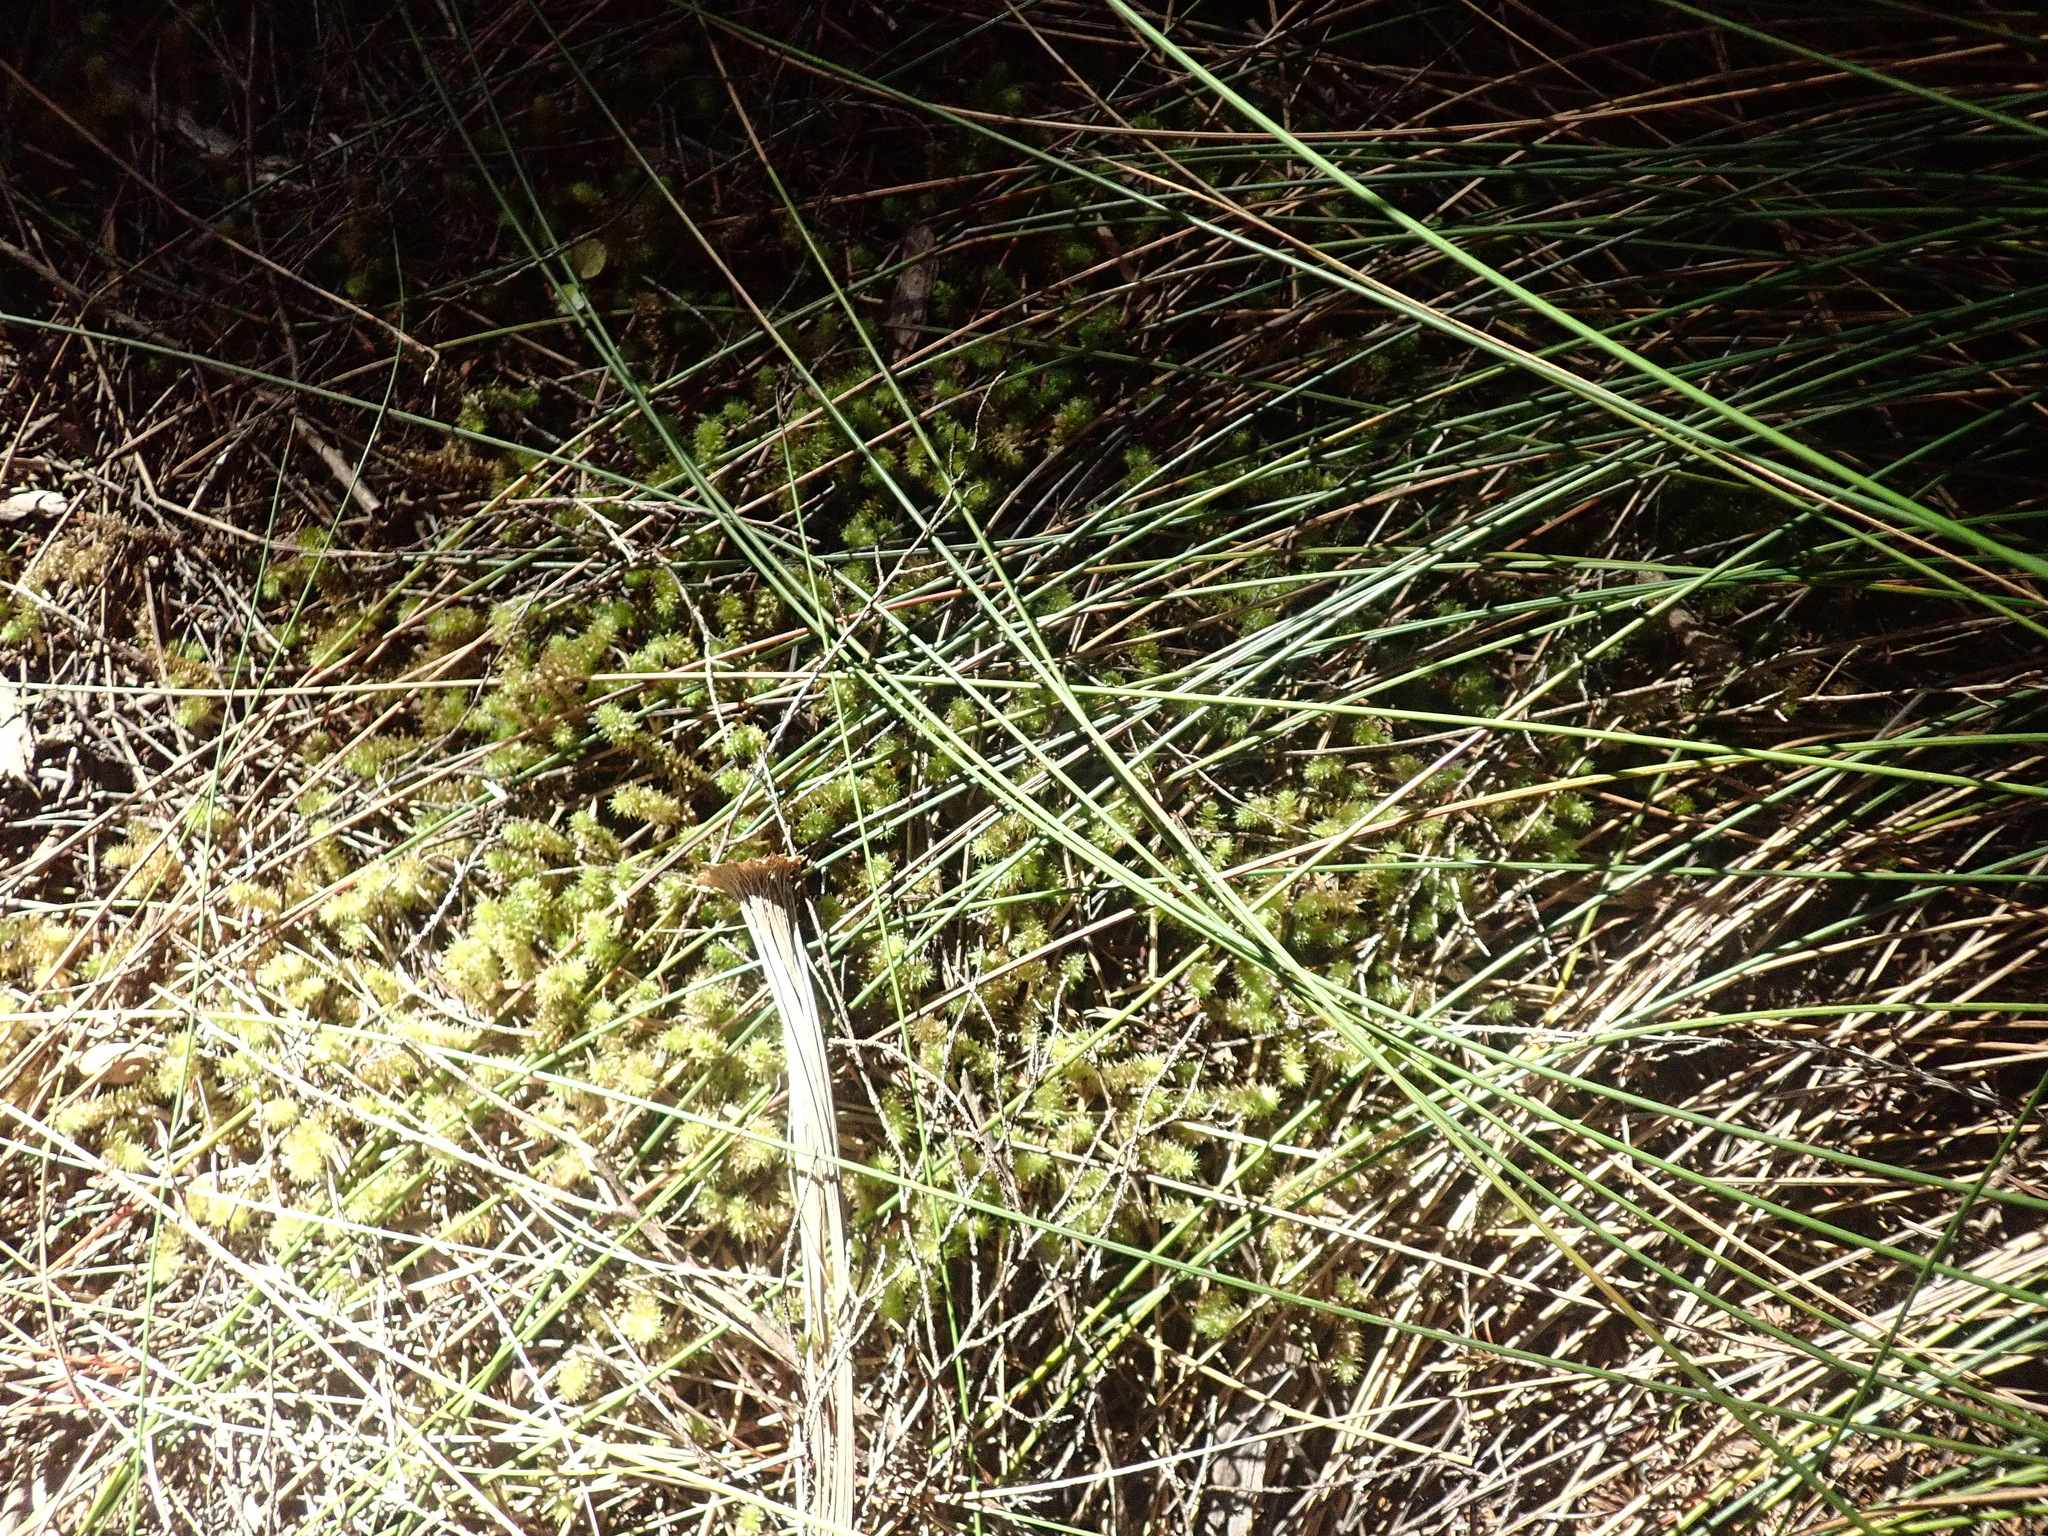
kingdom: Plantae
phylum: Bryophyta
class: Bryopsida
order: Ptychomniales
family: Ptychomniaceae
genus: Ptychomnion
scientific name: Ptychomnion aciculare
